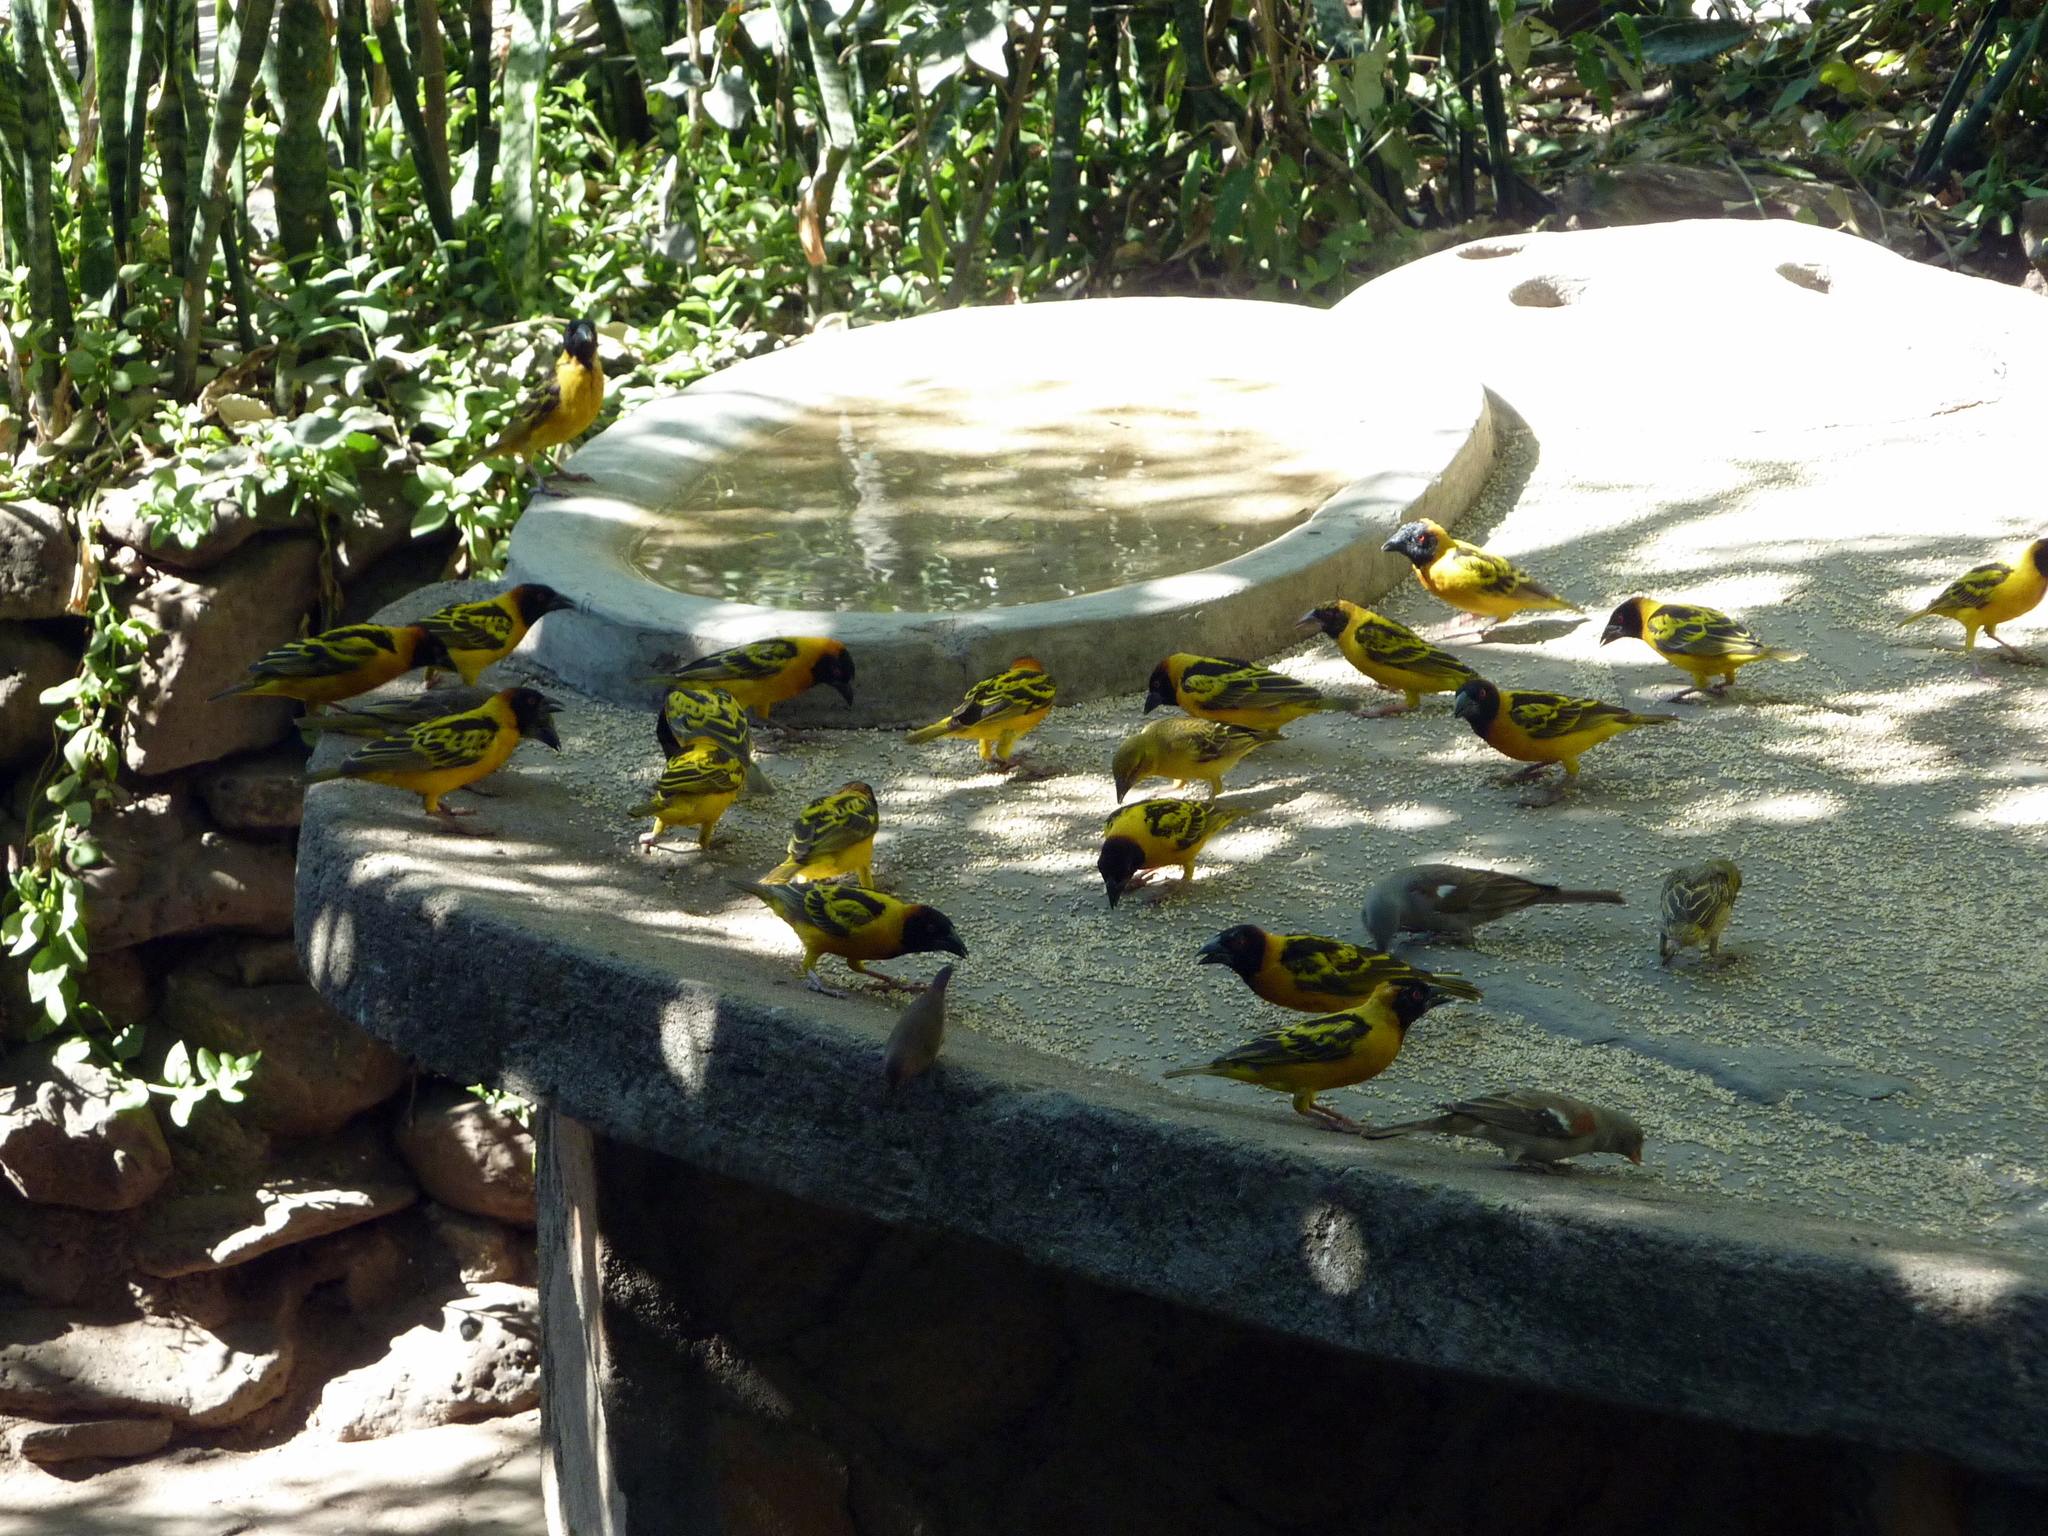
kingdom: Animalia
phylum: Chordata
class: Aves
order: Passeriformes
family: Ploceidae
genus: Ploceus
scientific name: Ploceus cucullatus
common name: Village weaver
